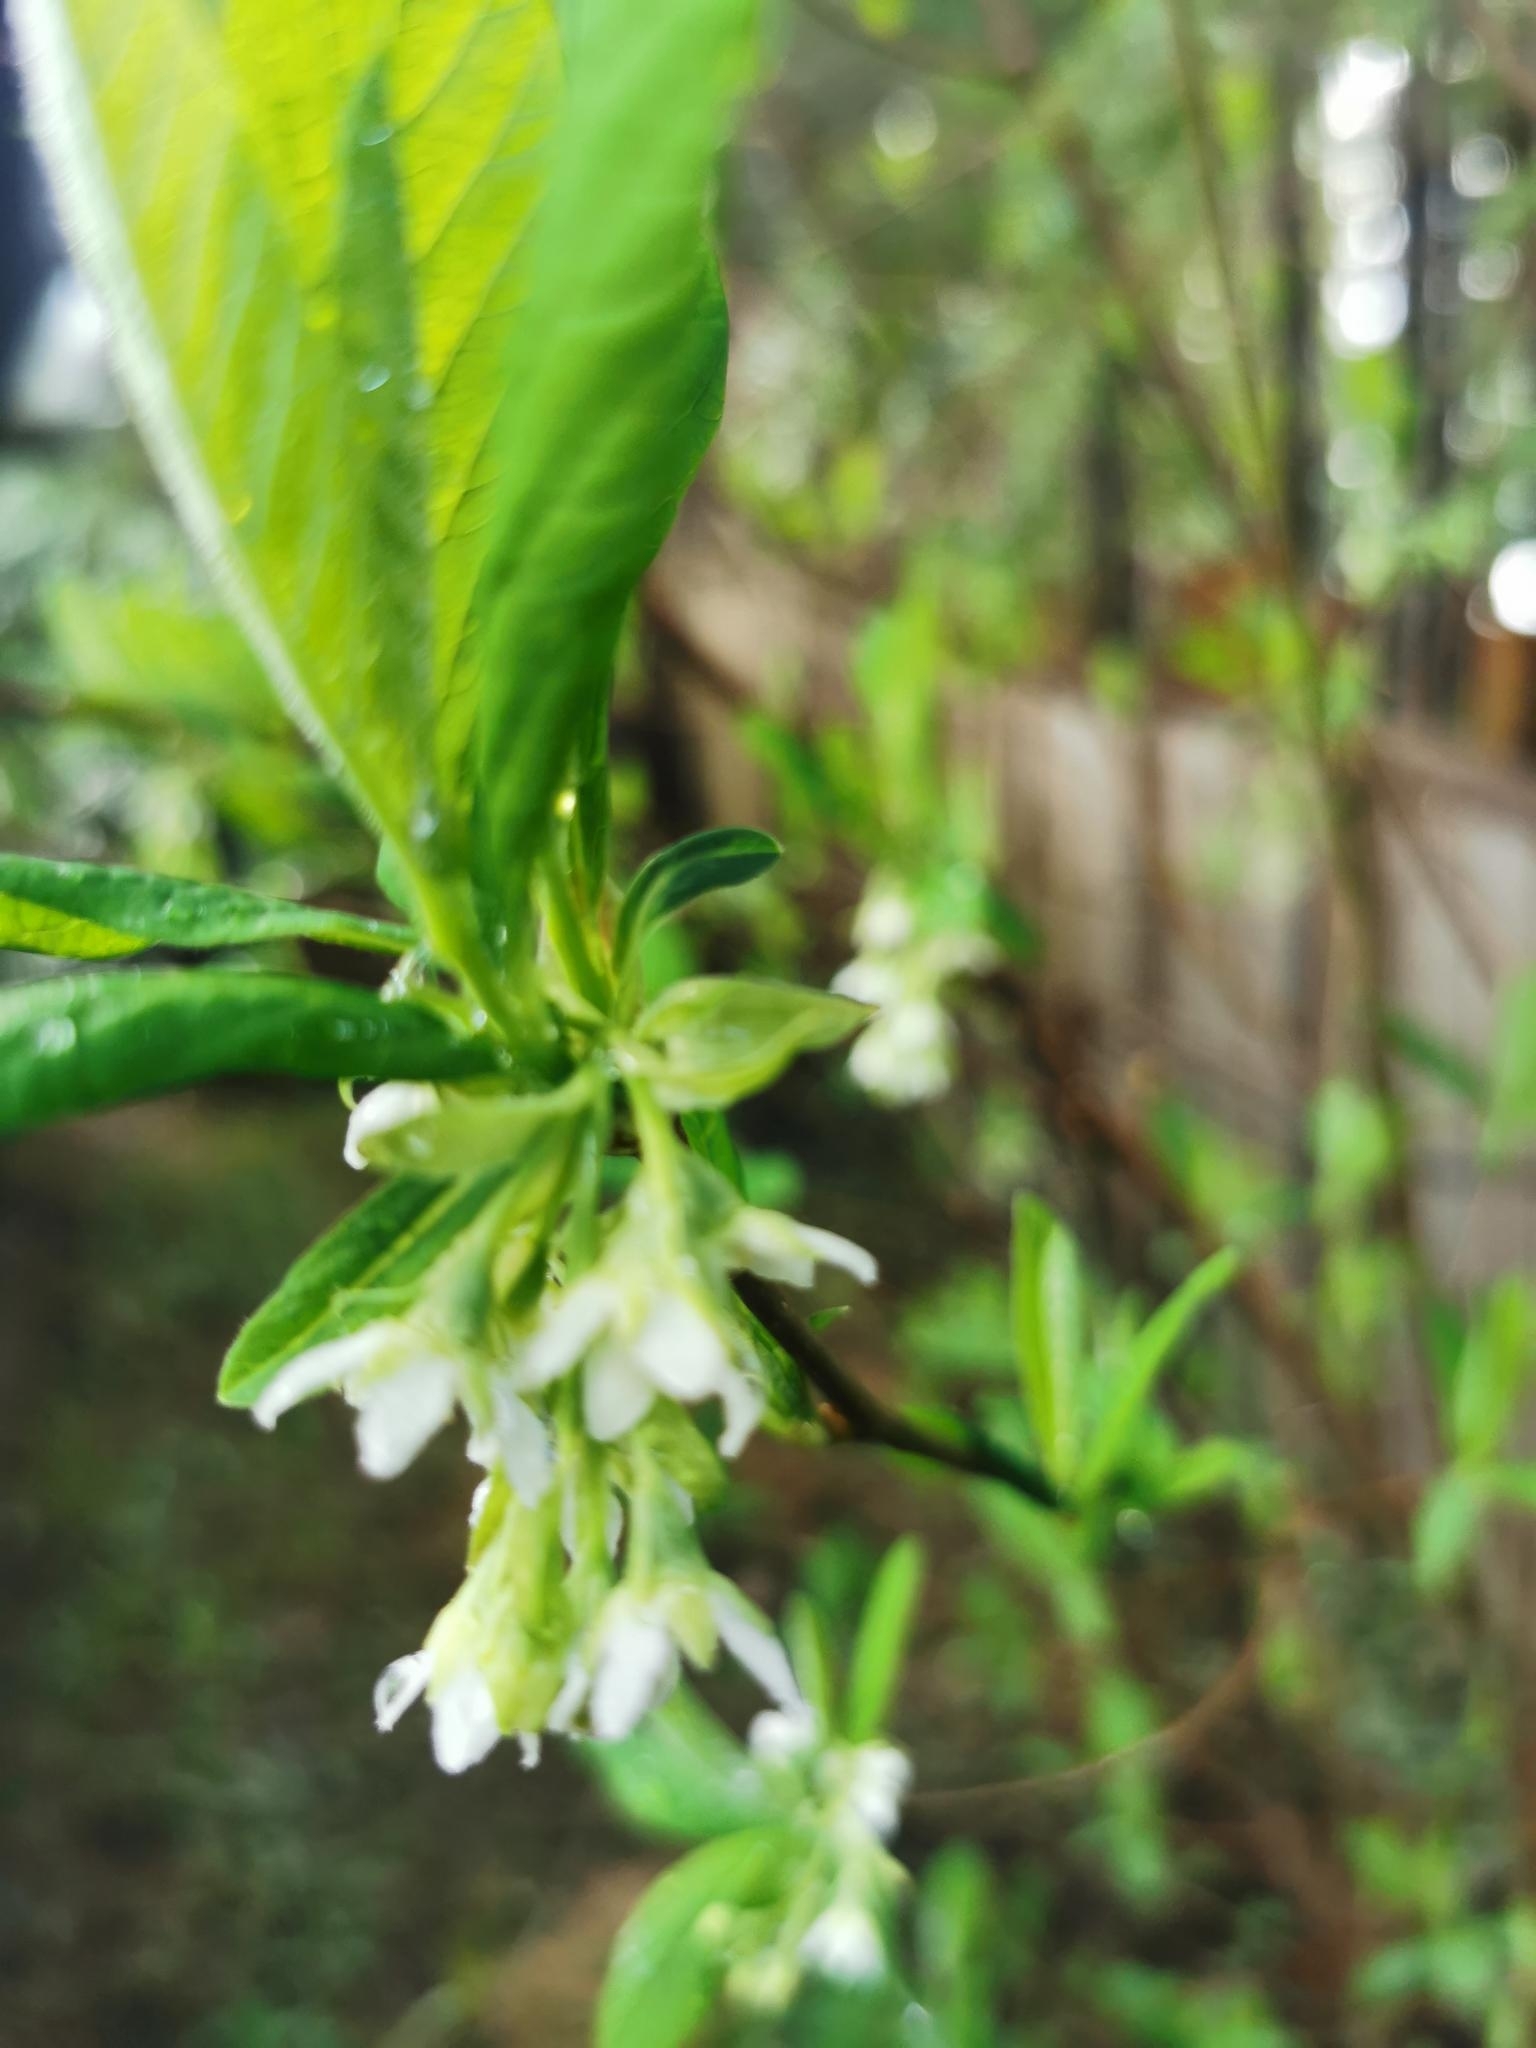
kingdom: Plantae
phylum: Tracheophyta
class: Magnoliopsida
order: Rosales
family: Rosaceae
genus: Oemleria
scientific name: Oemleria cerasiformis
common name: Osoberry
